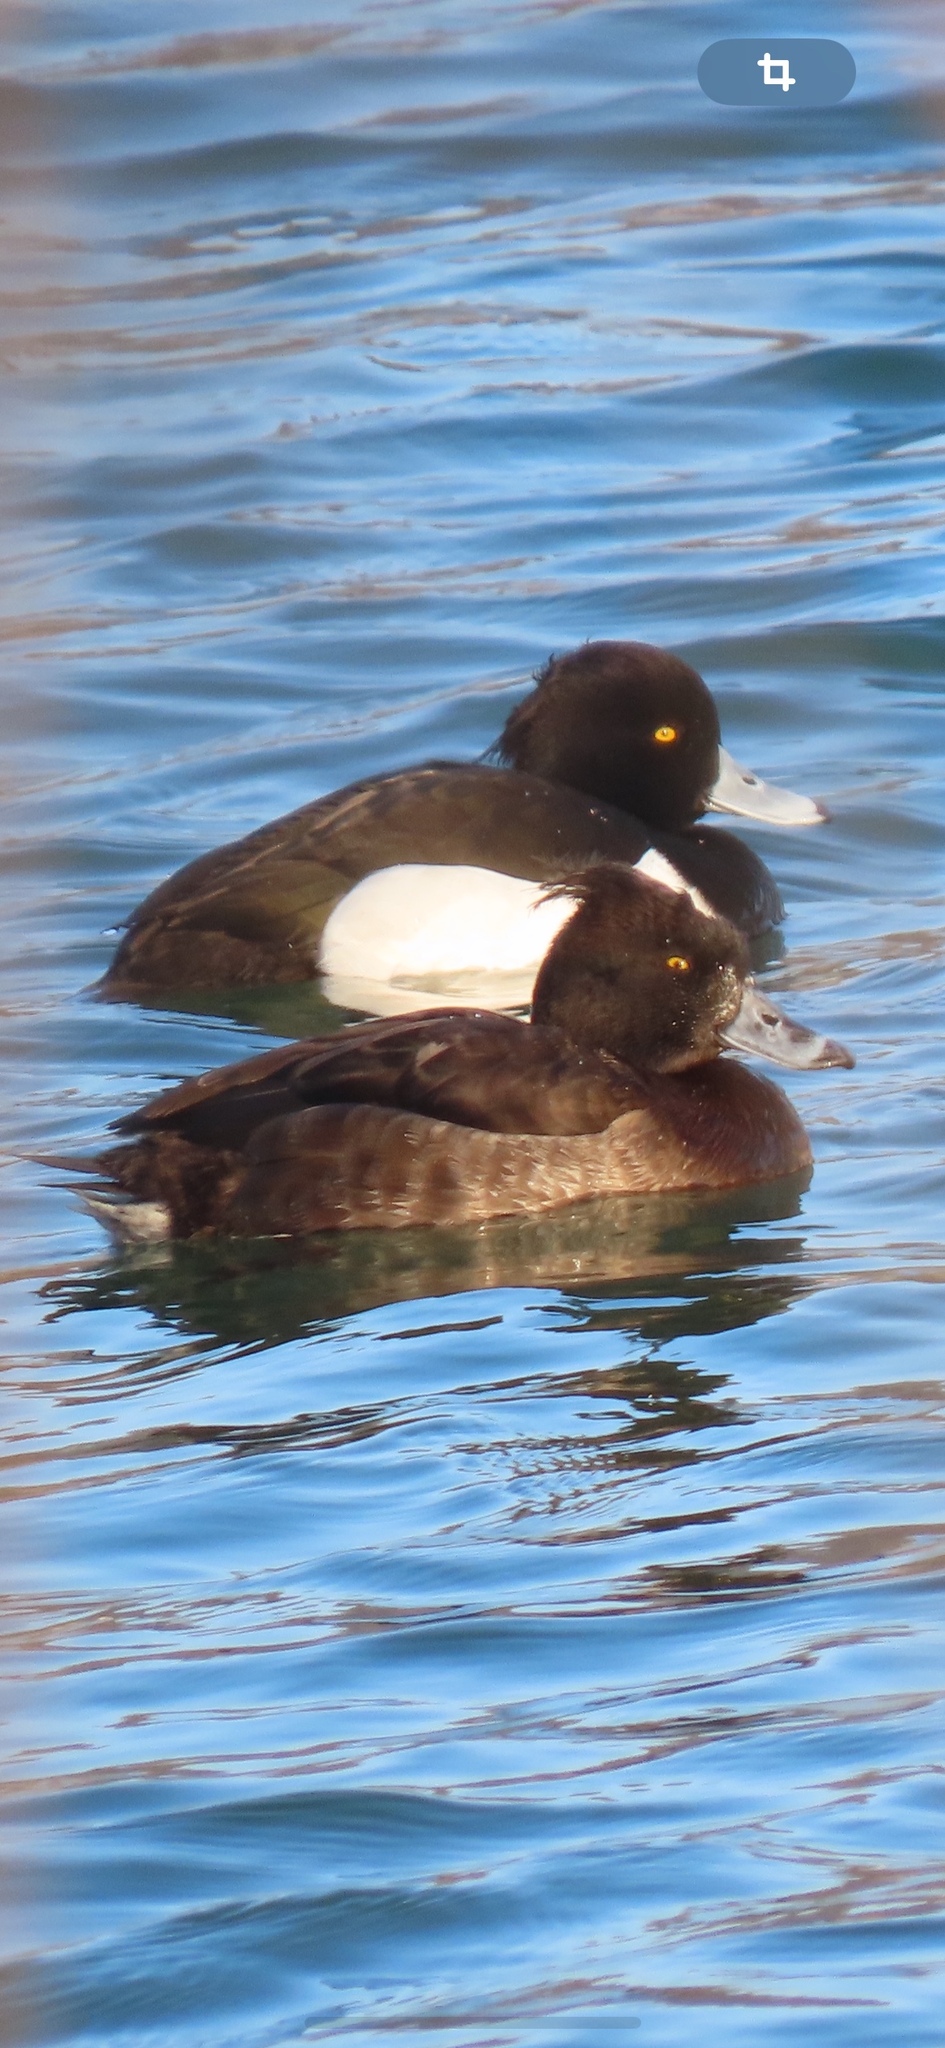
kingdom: Animalia
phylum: Chordata
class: Aves
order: Anseriformes
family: Anatidae
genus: Aythya
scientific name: Aythya fuligula
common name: Tufted duck
